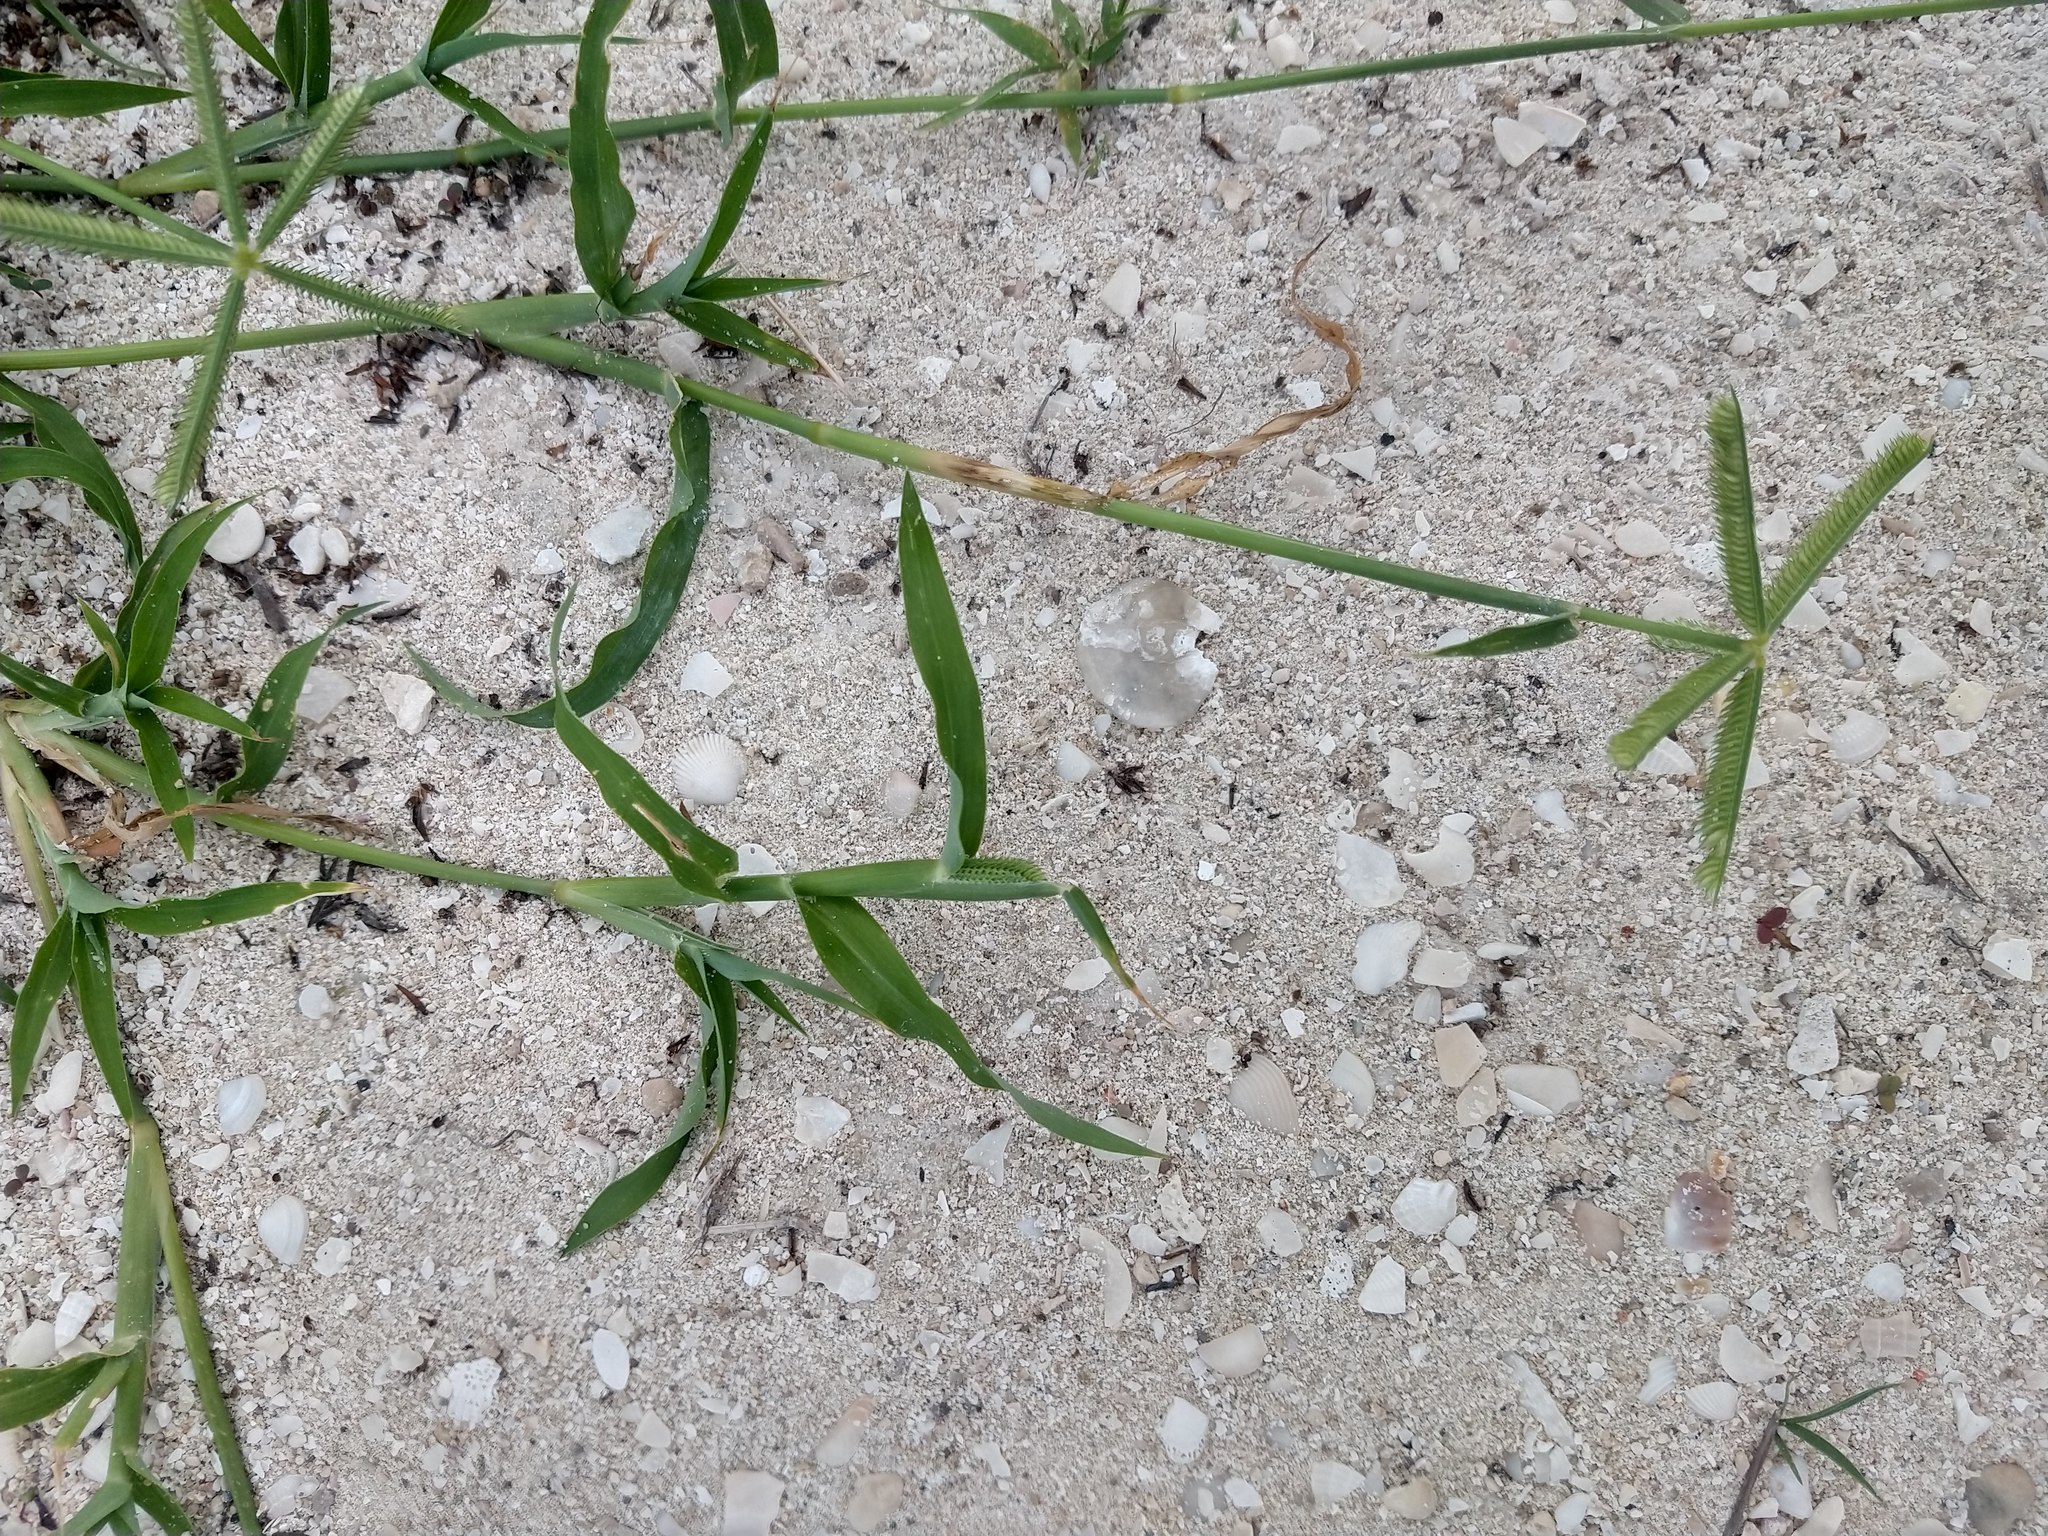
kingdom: Plantae
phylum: Tracheophyta
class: Liliopsida
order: Poales
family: Poaceae
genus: Dactyloctenium
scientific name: Dactyloctenium aegyptium
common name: Egyptian grass
